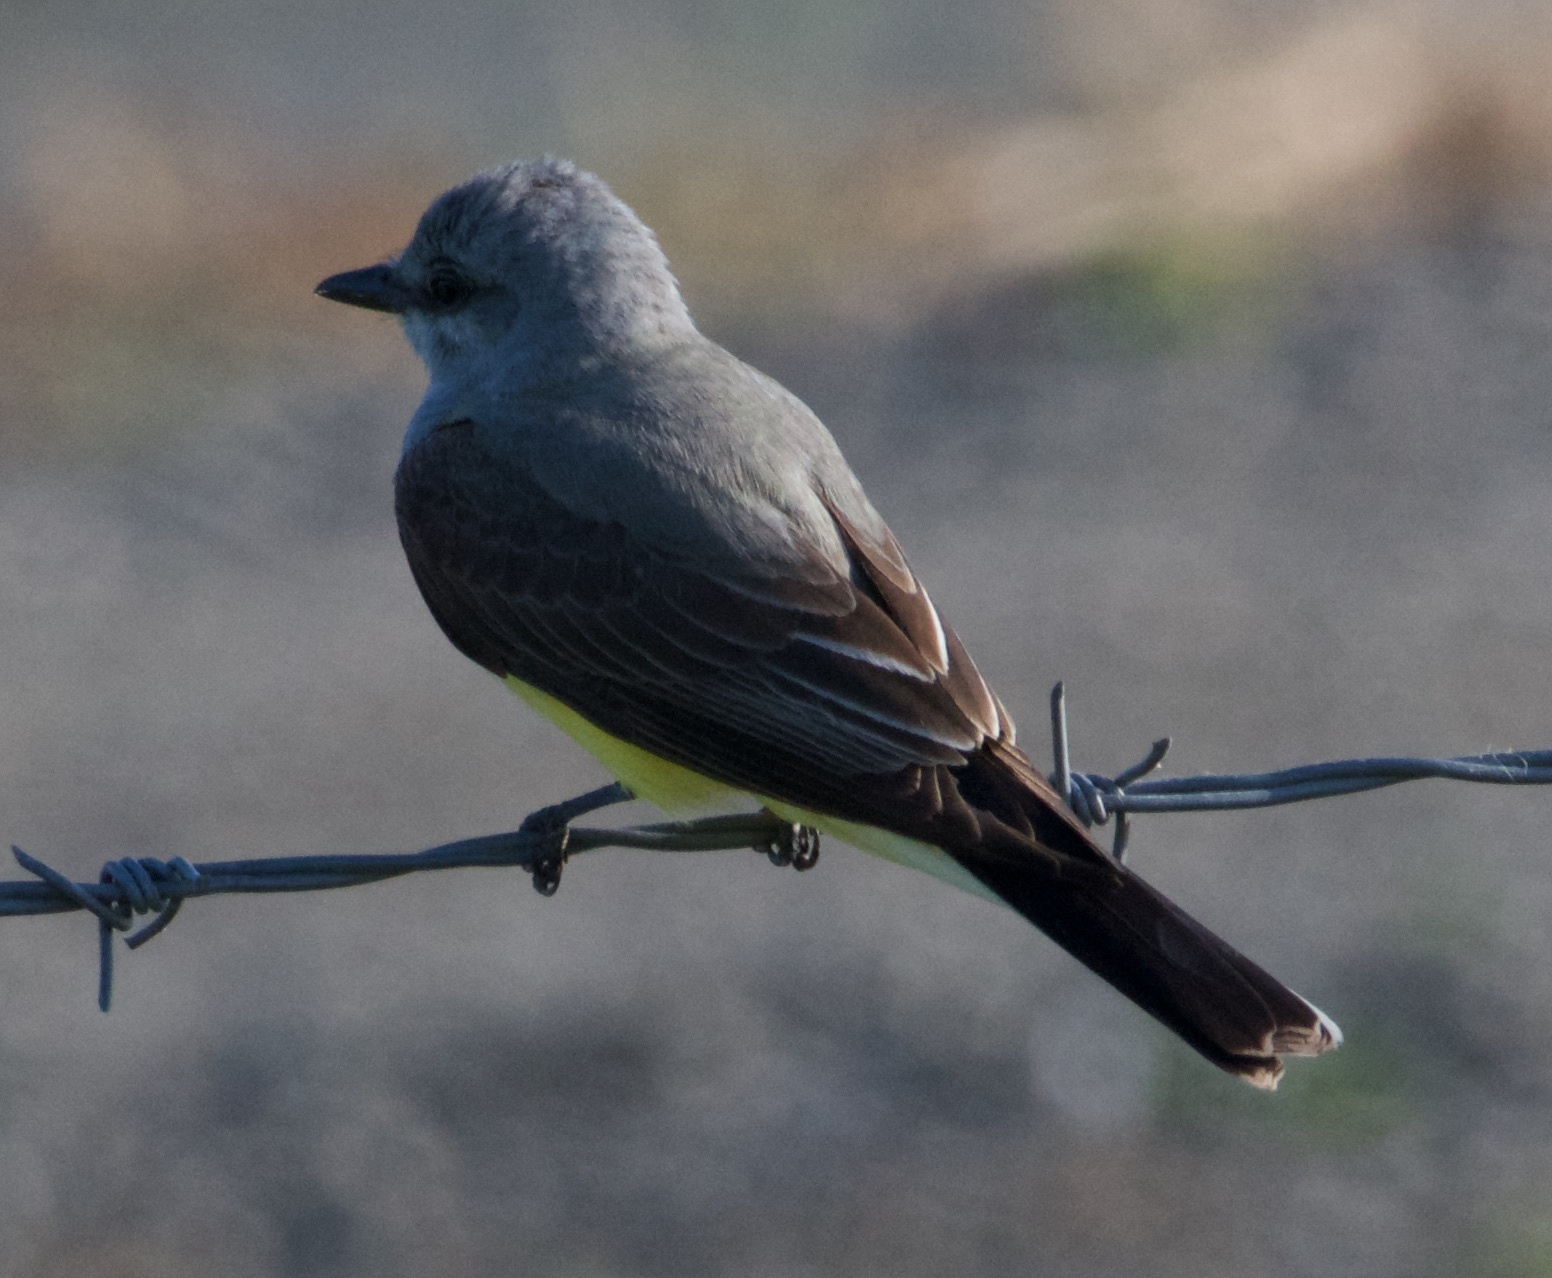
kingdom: Animalia
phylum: Chordata
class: Aves
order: Passeriformes
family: Tyrannidae
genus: Tyrannus
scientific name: Tyrannus verticalis
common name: Western kingbird
